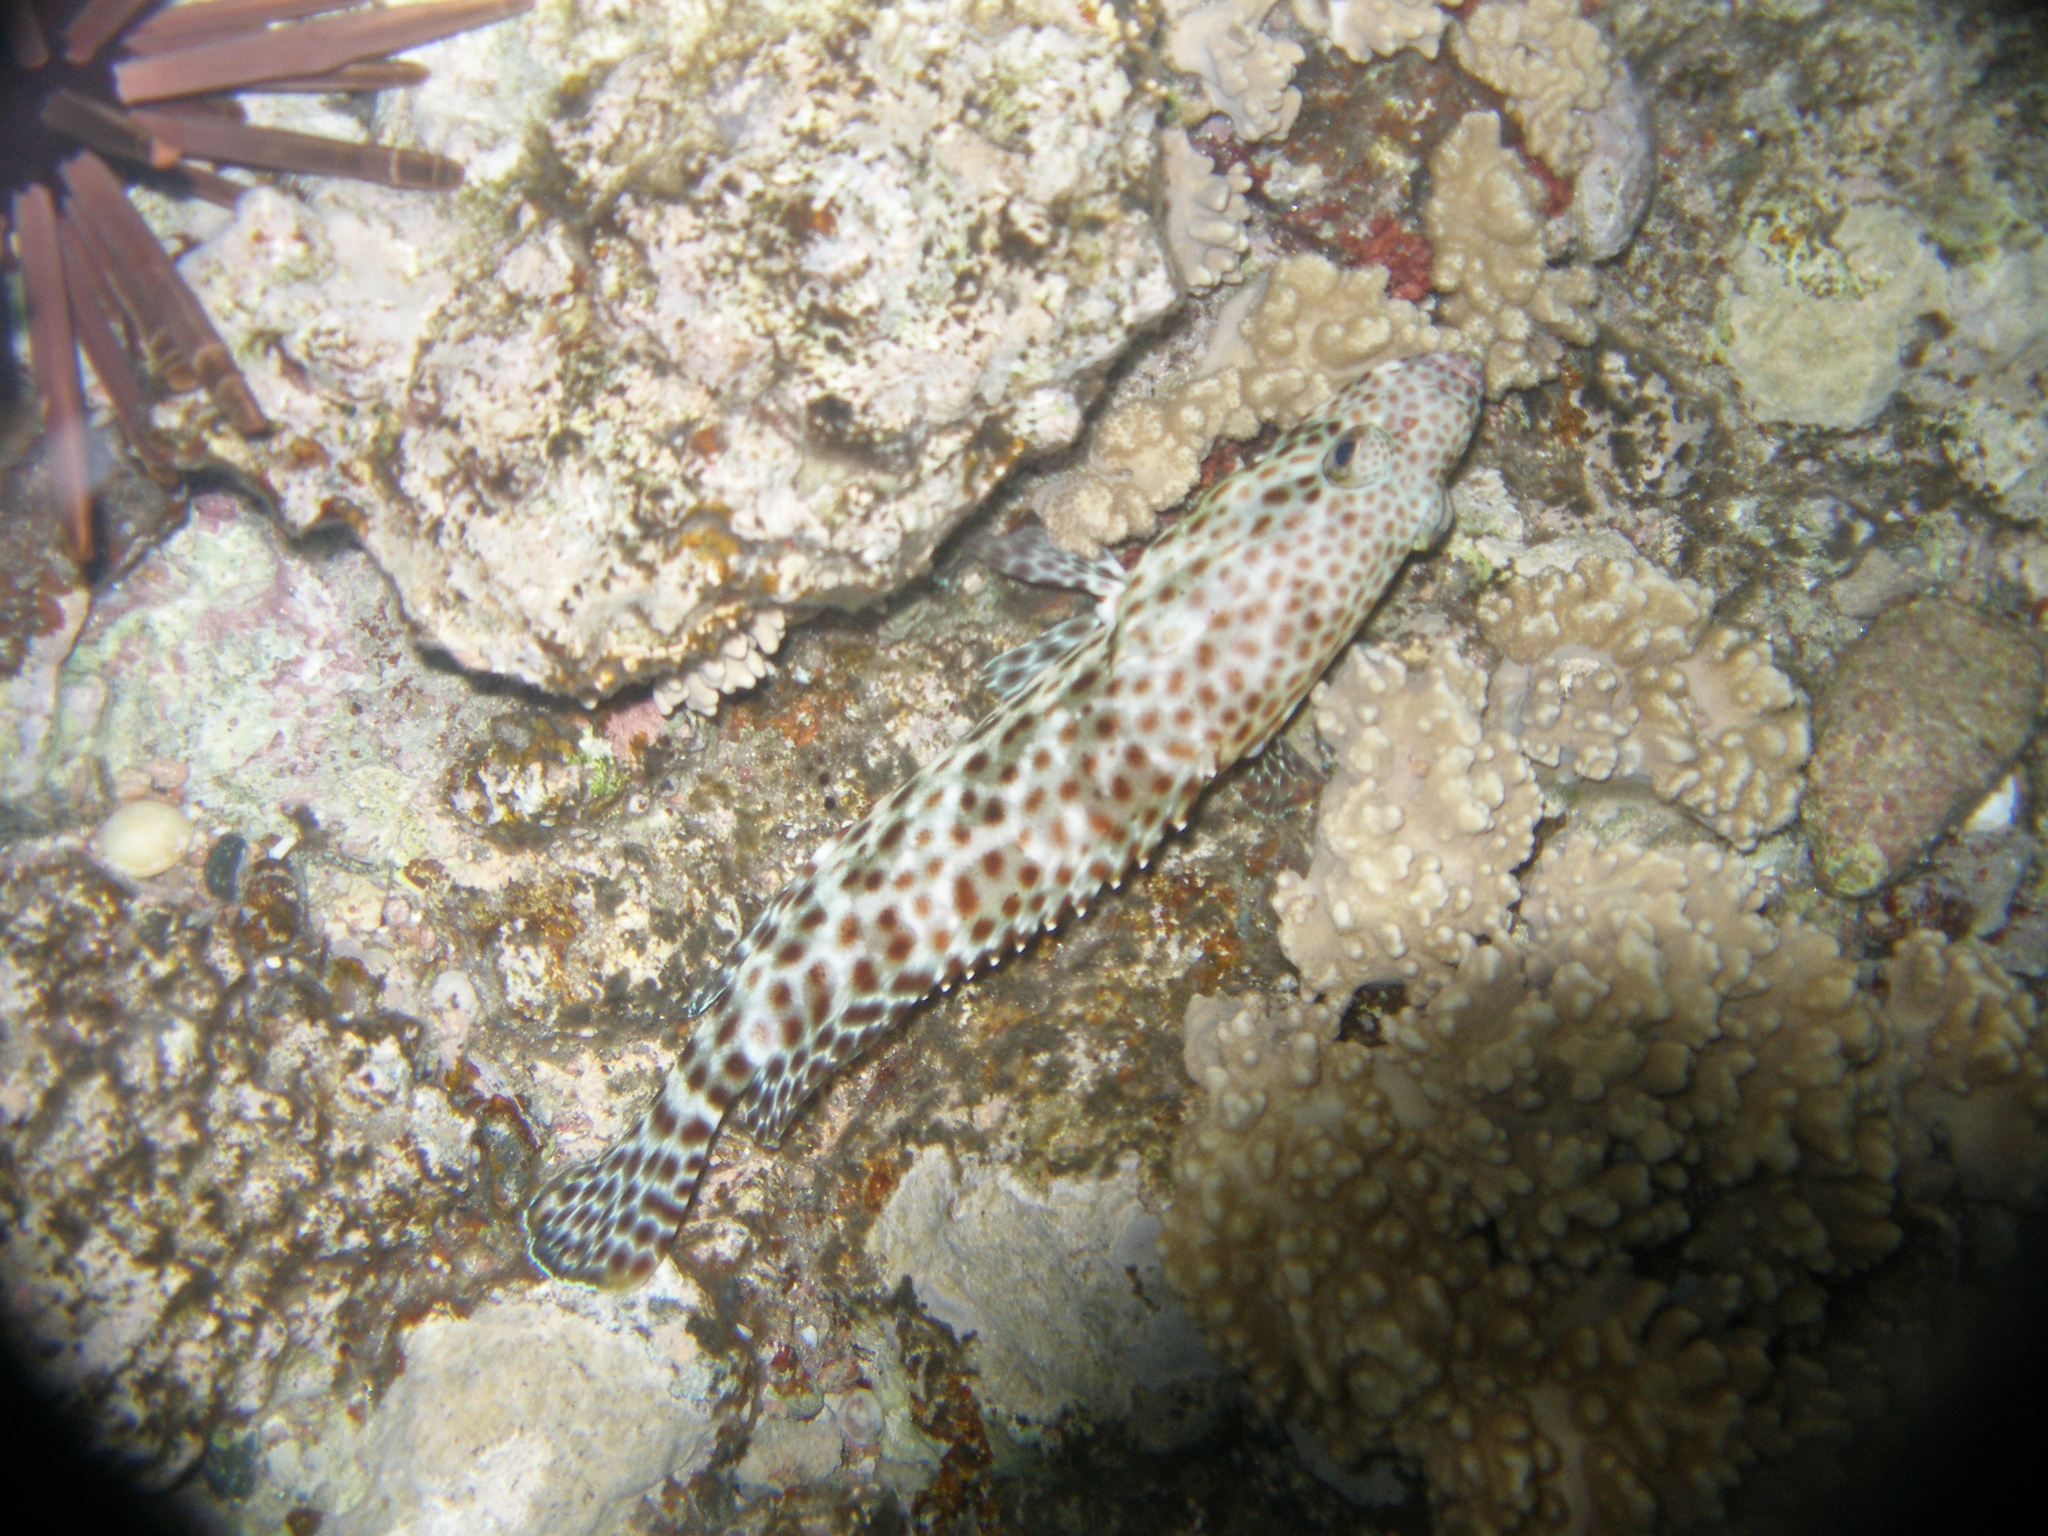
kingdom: Animalia
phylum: Chordata
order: Perciformes
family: Serranidae
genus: Epinephelus
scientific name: Epinephelus tauvina
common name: Greasy grouper
